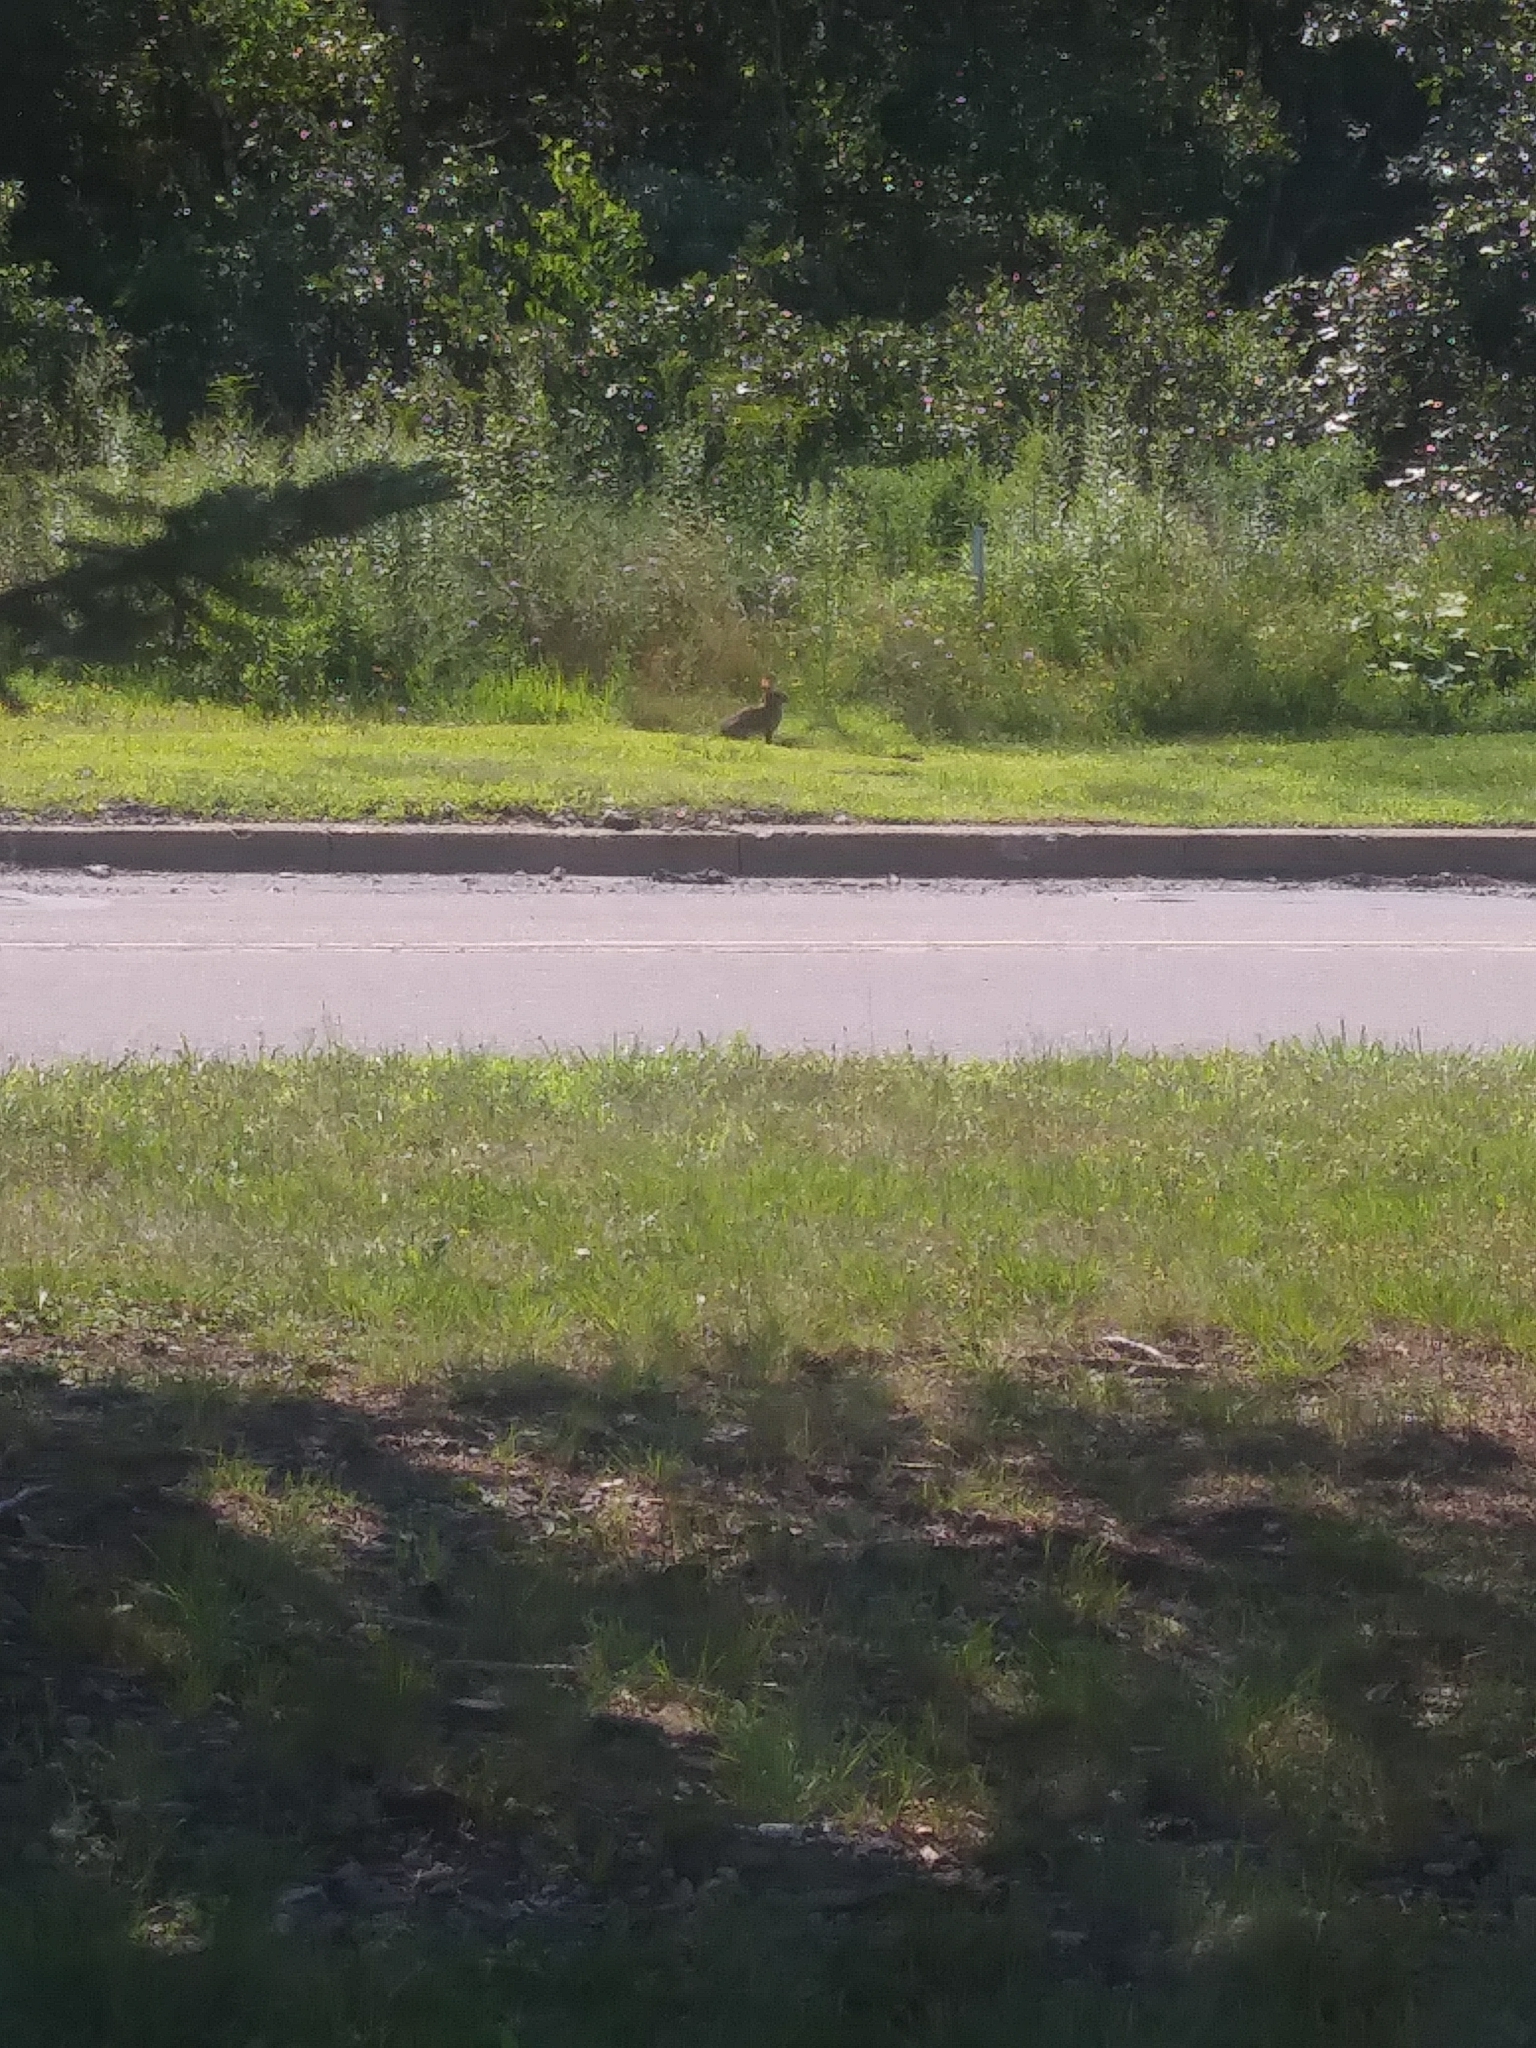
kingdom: Animalia
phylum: Chordata
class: Mammalia
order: Lagomorpha
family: Leporidae
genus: Sylvilagus
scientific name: Sylvilagus floridanus
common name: Eastern cottontail
